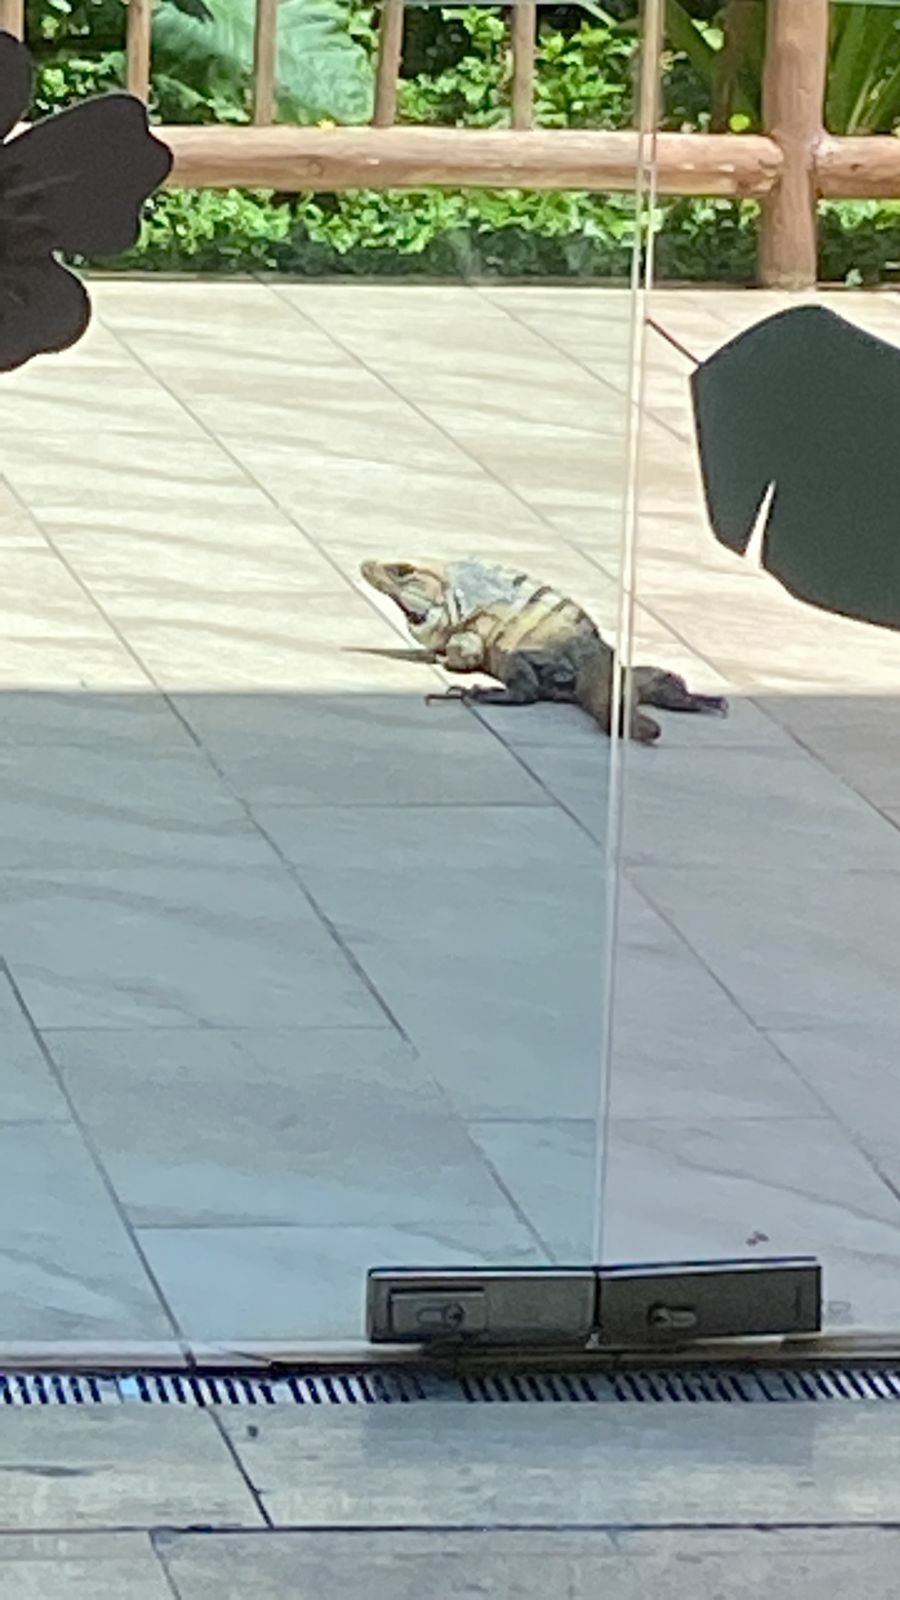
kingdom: Animalia
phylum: Chordata
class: Squamata
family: Iguanidae
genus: Ctenosaura
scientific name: Ctenosaura similis
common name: Black spiny-tailed iguana
